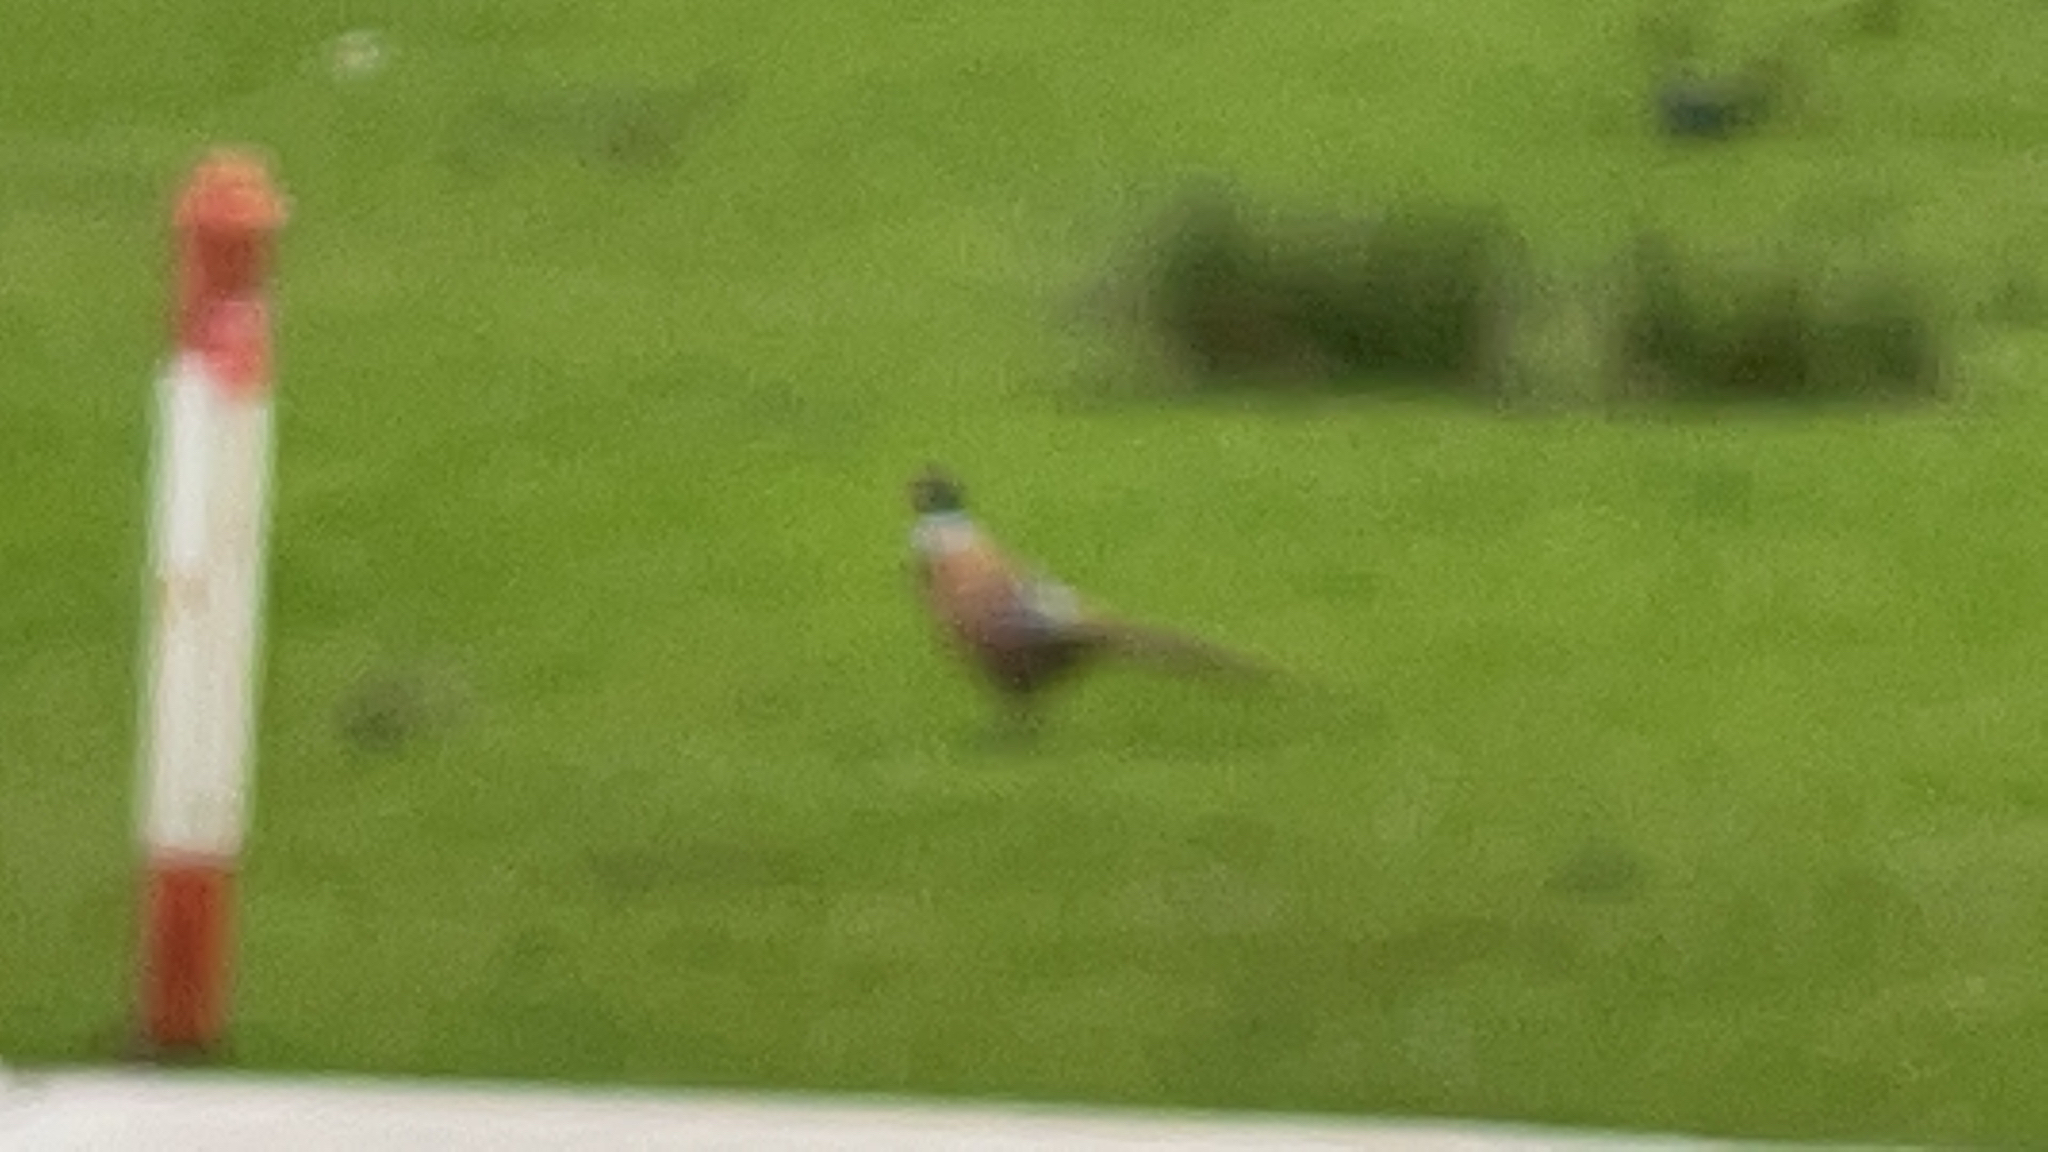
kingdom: Animalia
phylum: Chordata
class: Aves
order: Galliformes
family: Phasianidae
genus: Phasianus
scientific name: Phasianus colchicus
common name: Common pheasant
